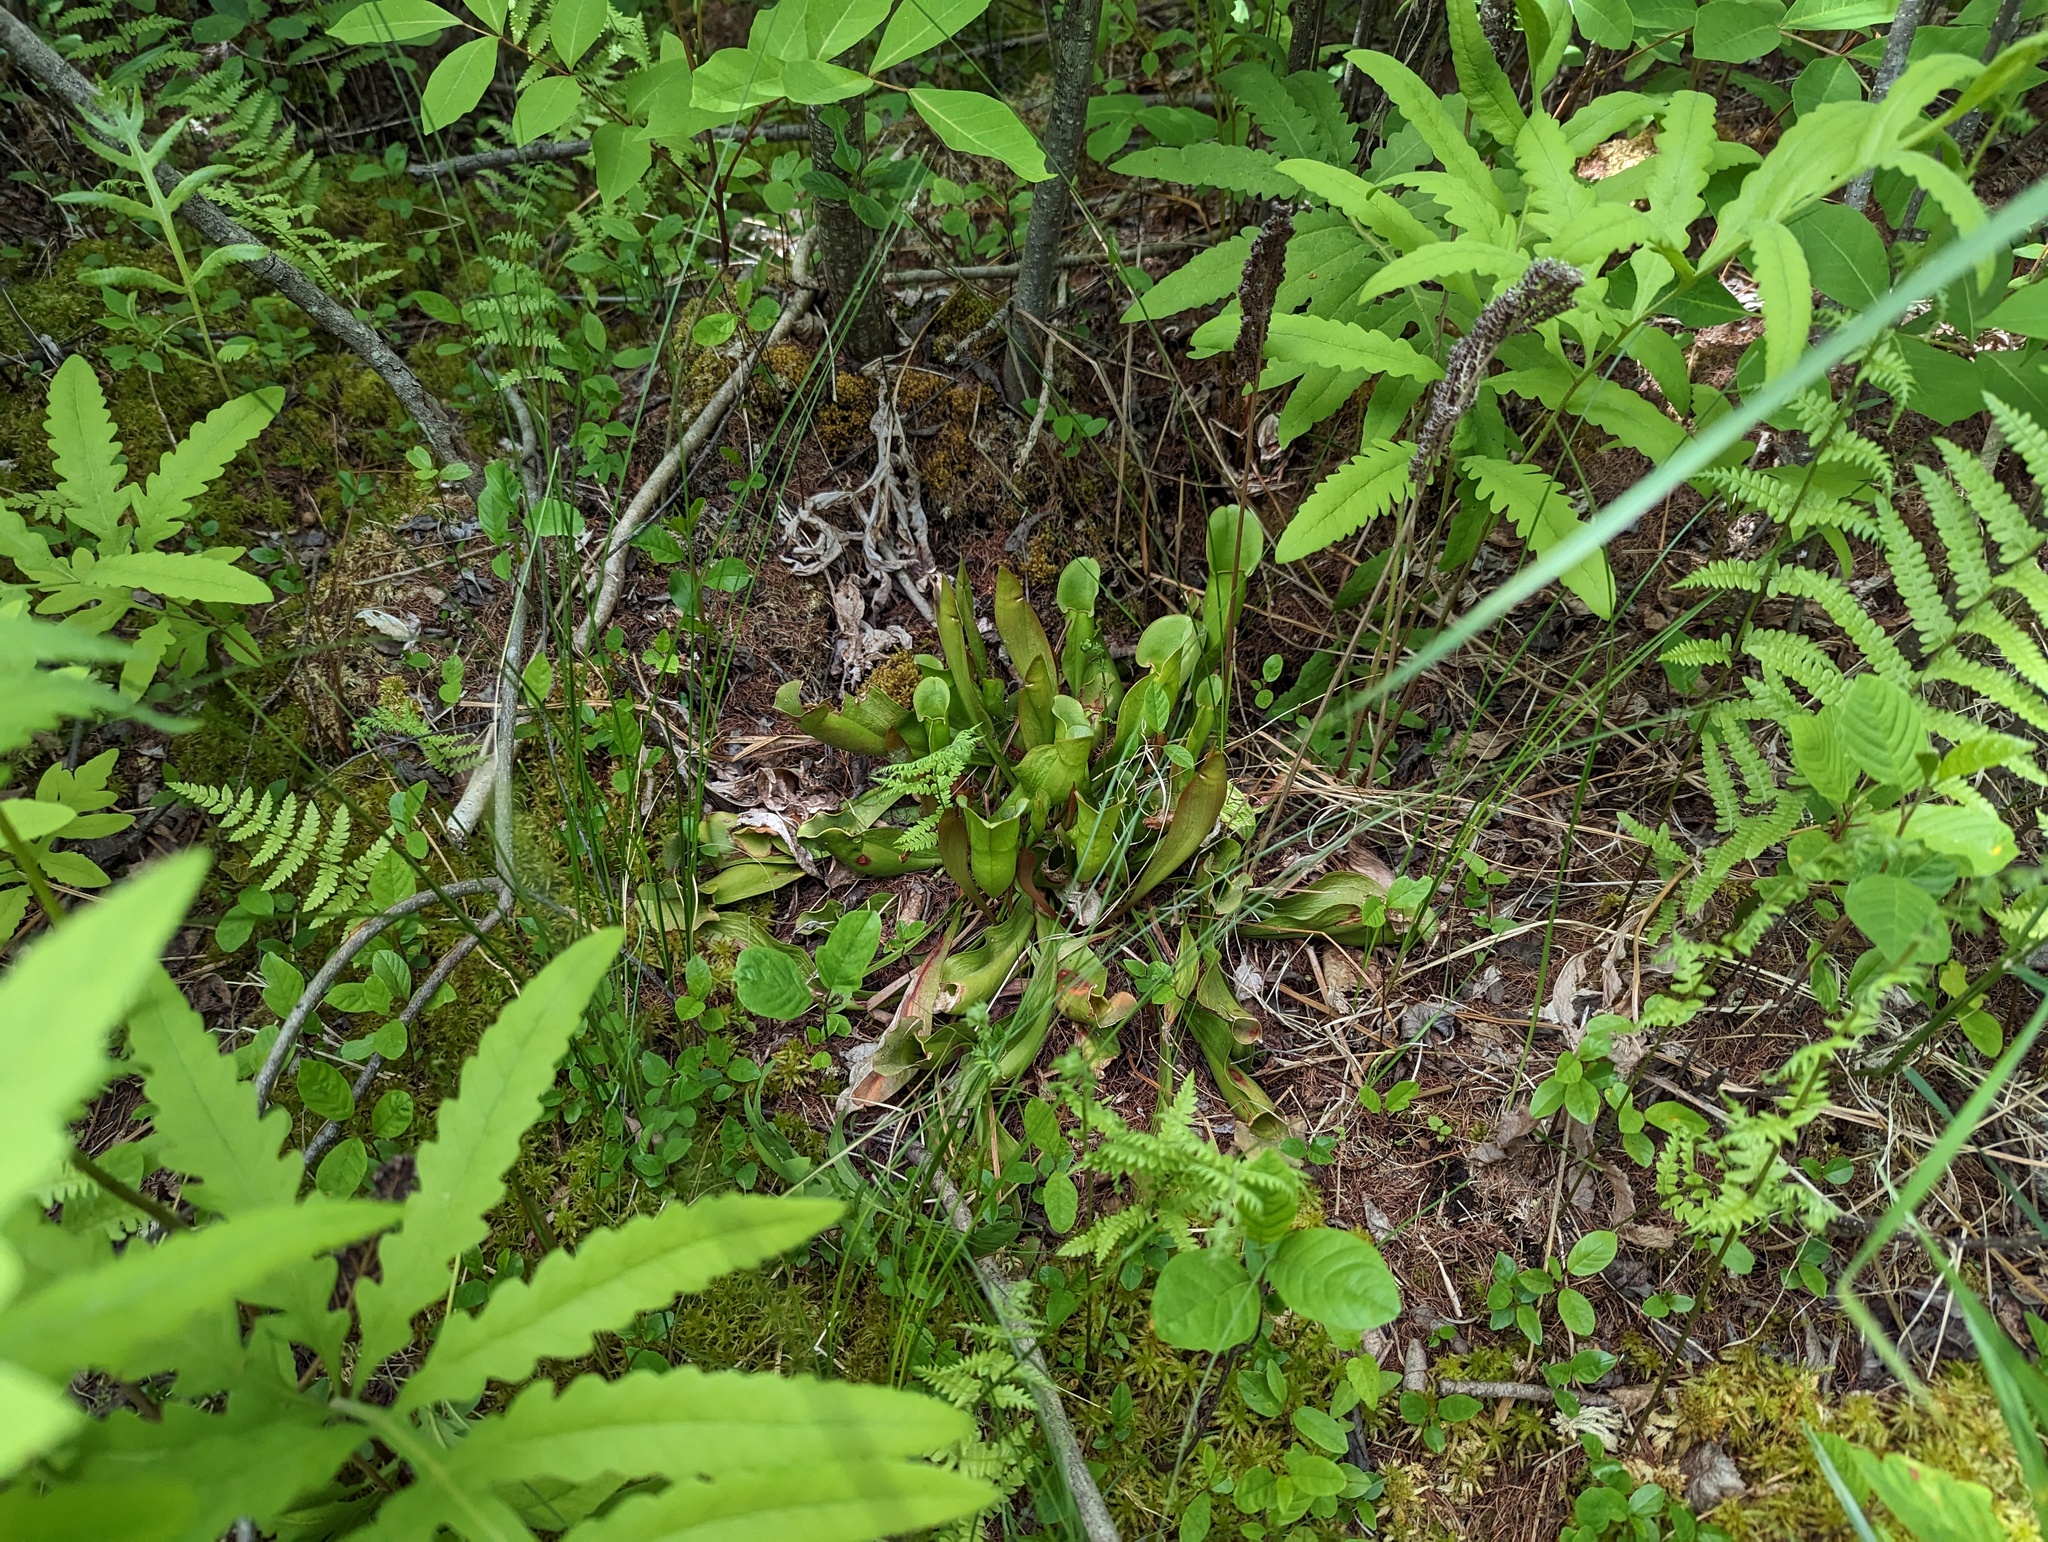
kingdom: Plantae
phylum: Tracheophyta
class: Magnoliopsida
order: Ericales
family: Sarraceniaceae
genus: Sarracenia
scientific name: Sarracenia purpurea
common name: Pitcherplant
